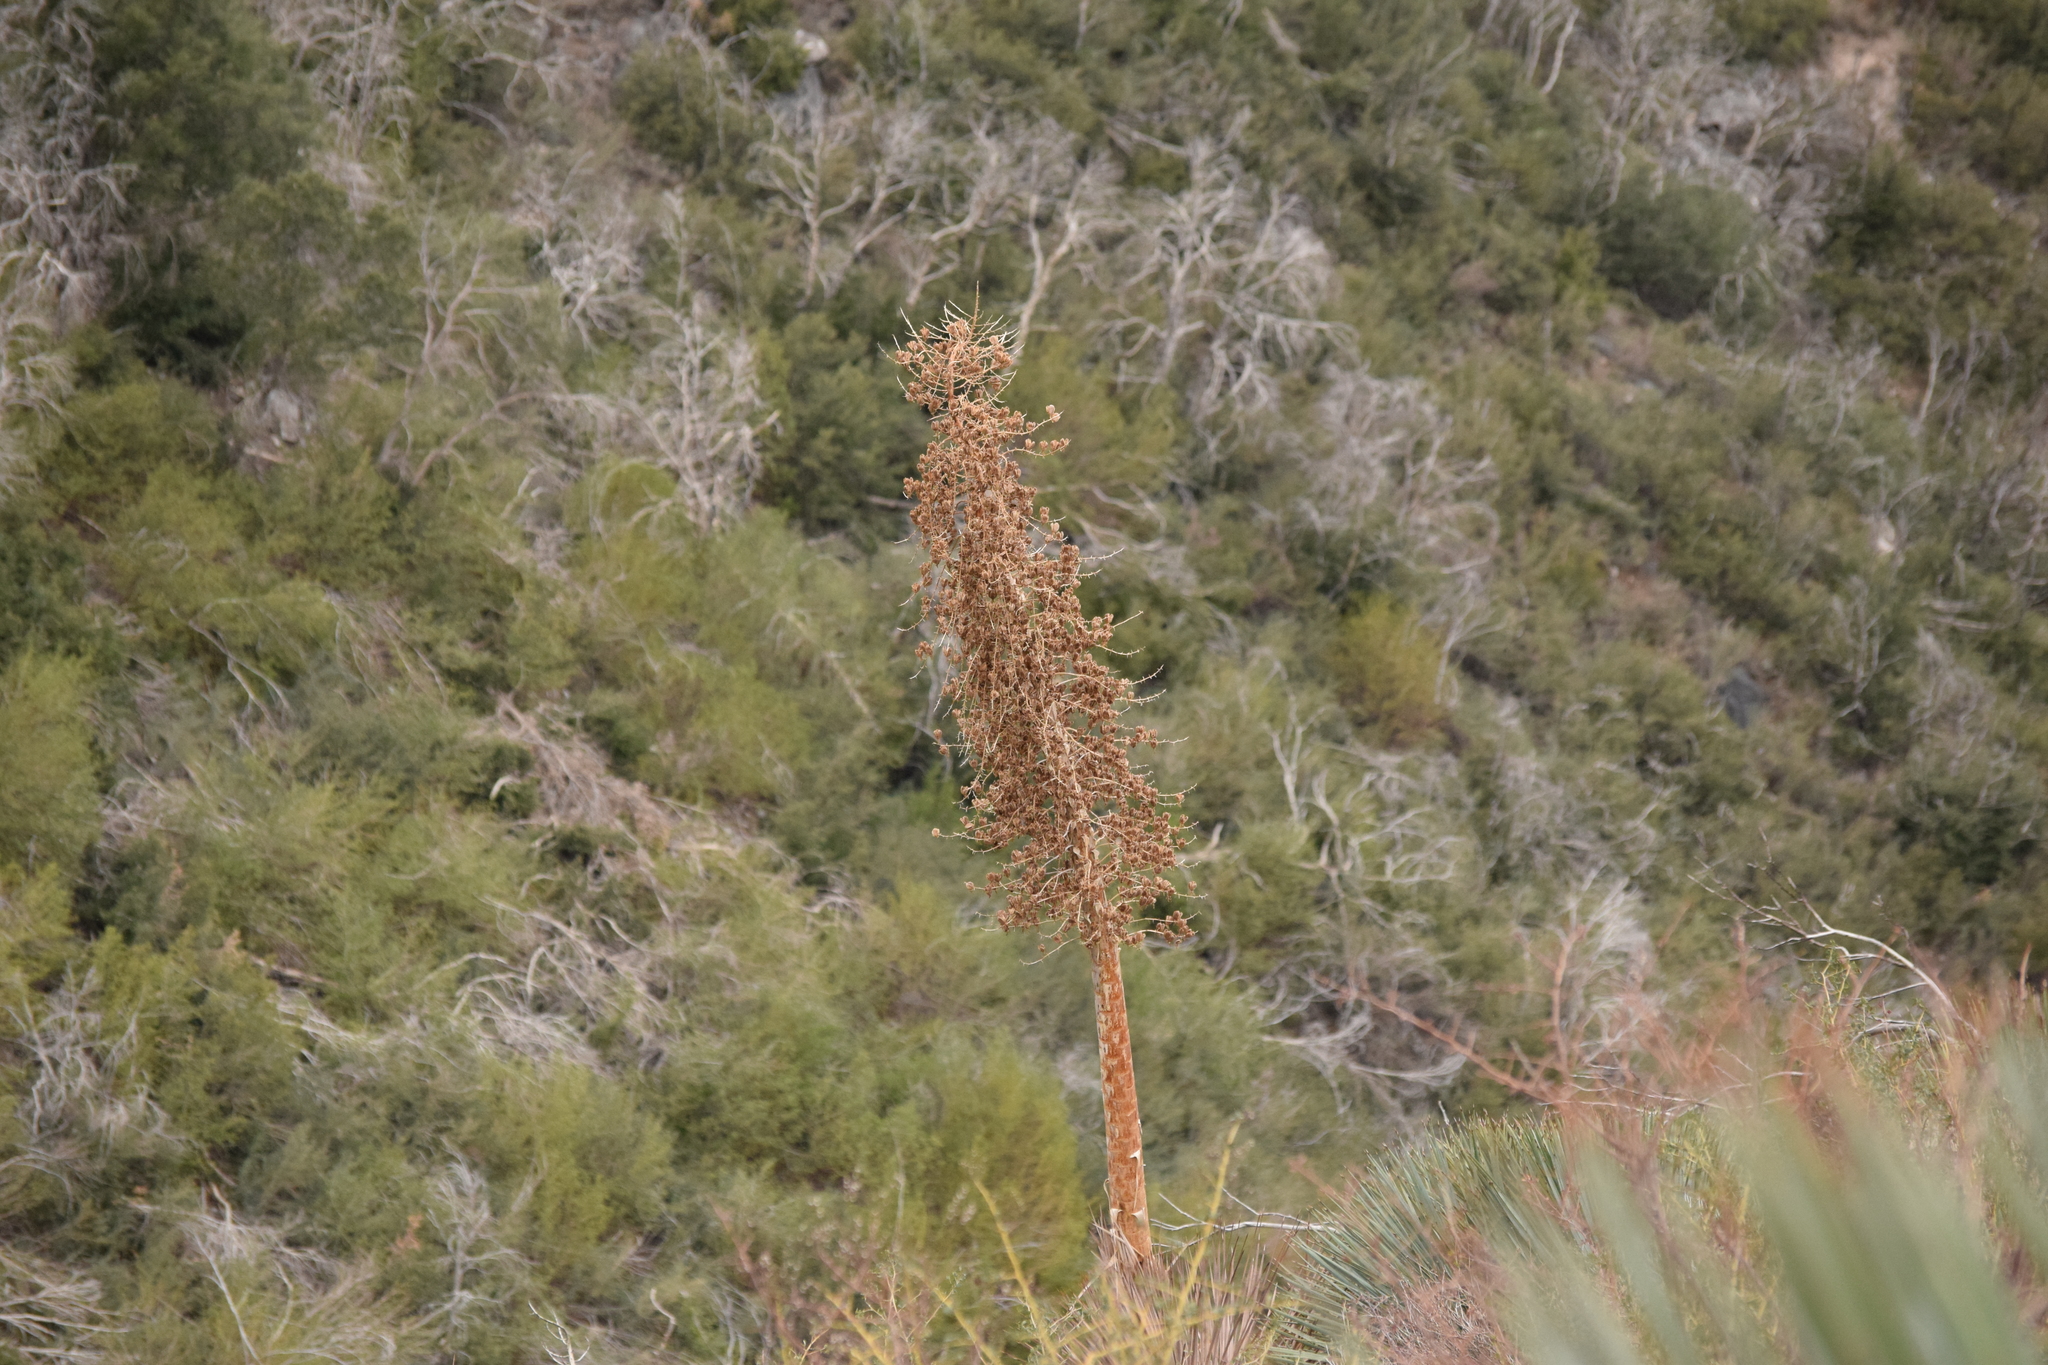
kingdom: Plantae
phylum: Tracheophyta
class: Liliopsida
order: Asparagales
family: Asparagaceae
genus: Hesperoyucca
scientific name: Hesperoyucca whipplei
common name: Our lord's-candle
